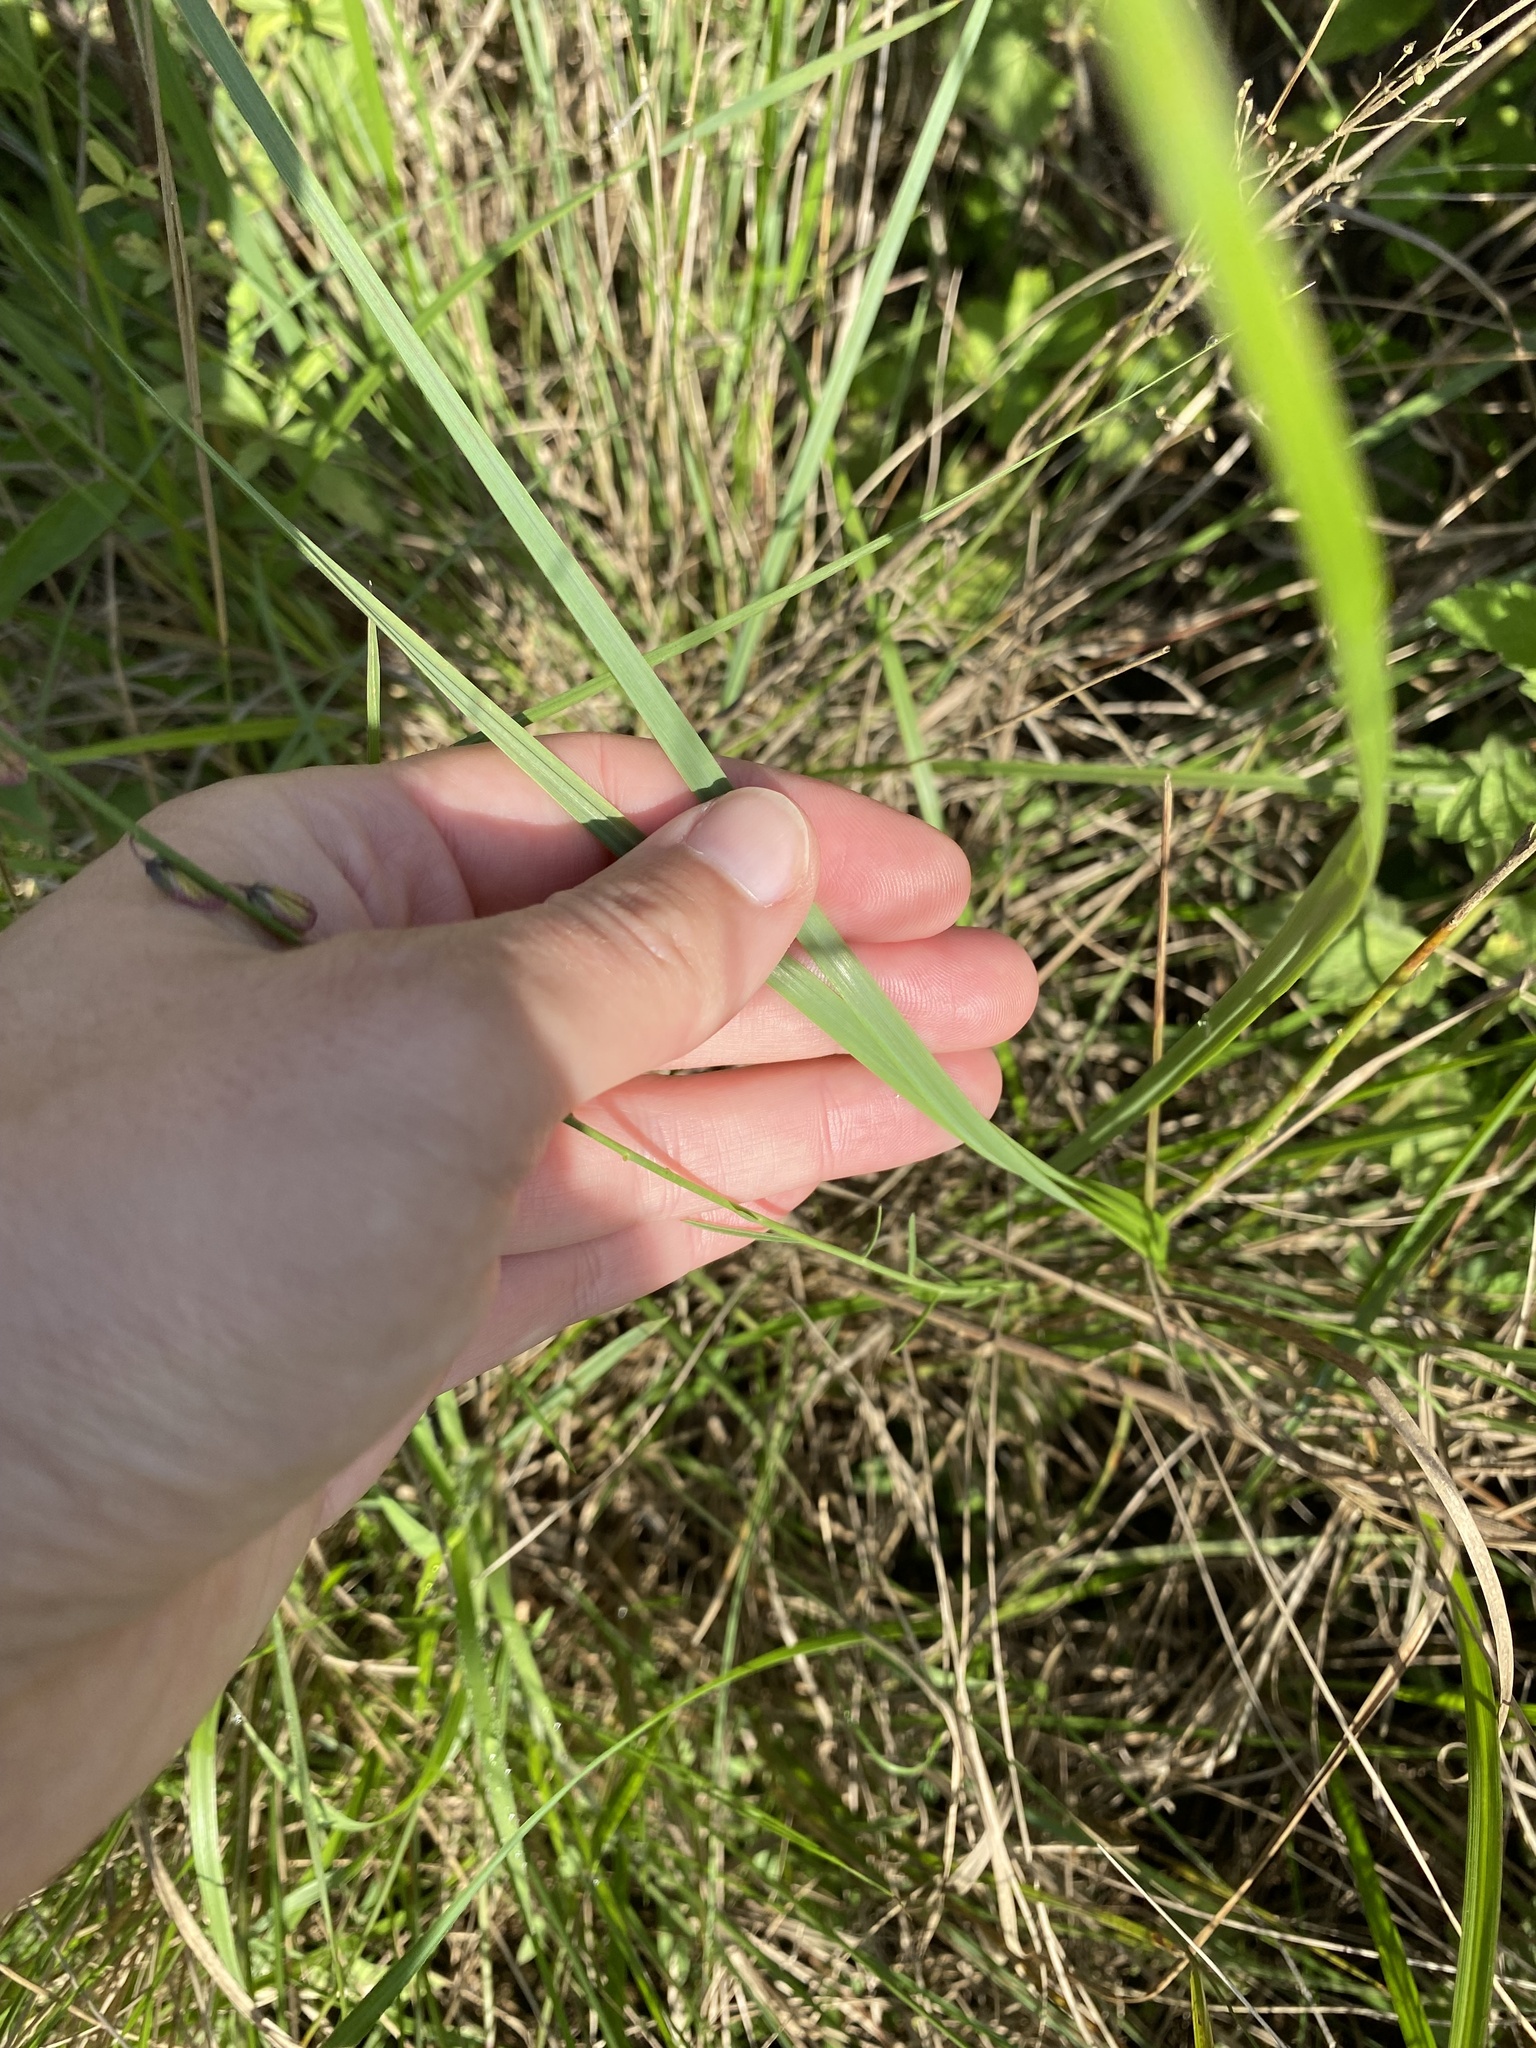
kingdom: Plantae
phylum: Tracheophyta
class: Magnoliopsida
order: Fabales
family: Polygalaceae
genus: Polygala
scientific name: Polygala hottentotta
